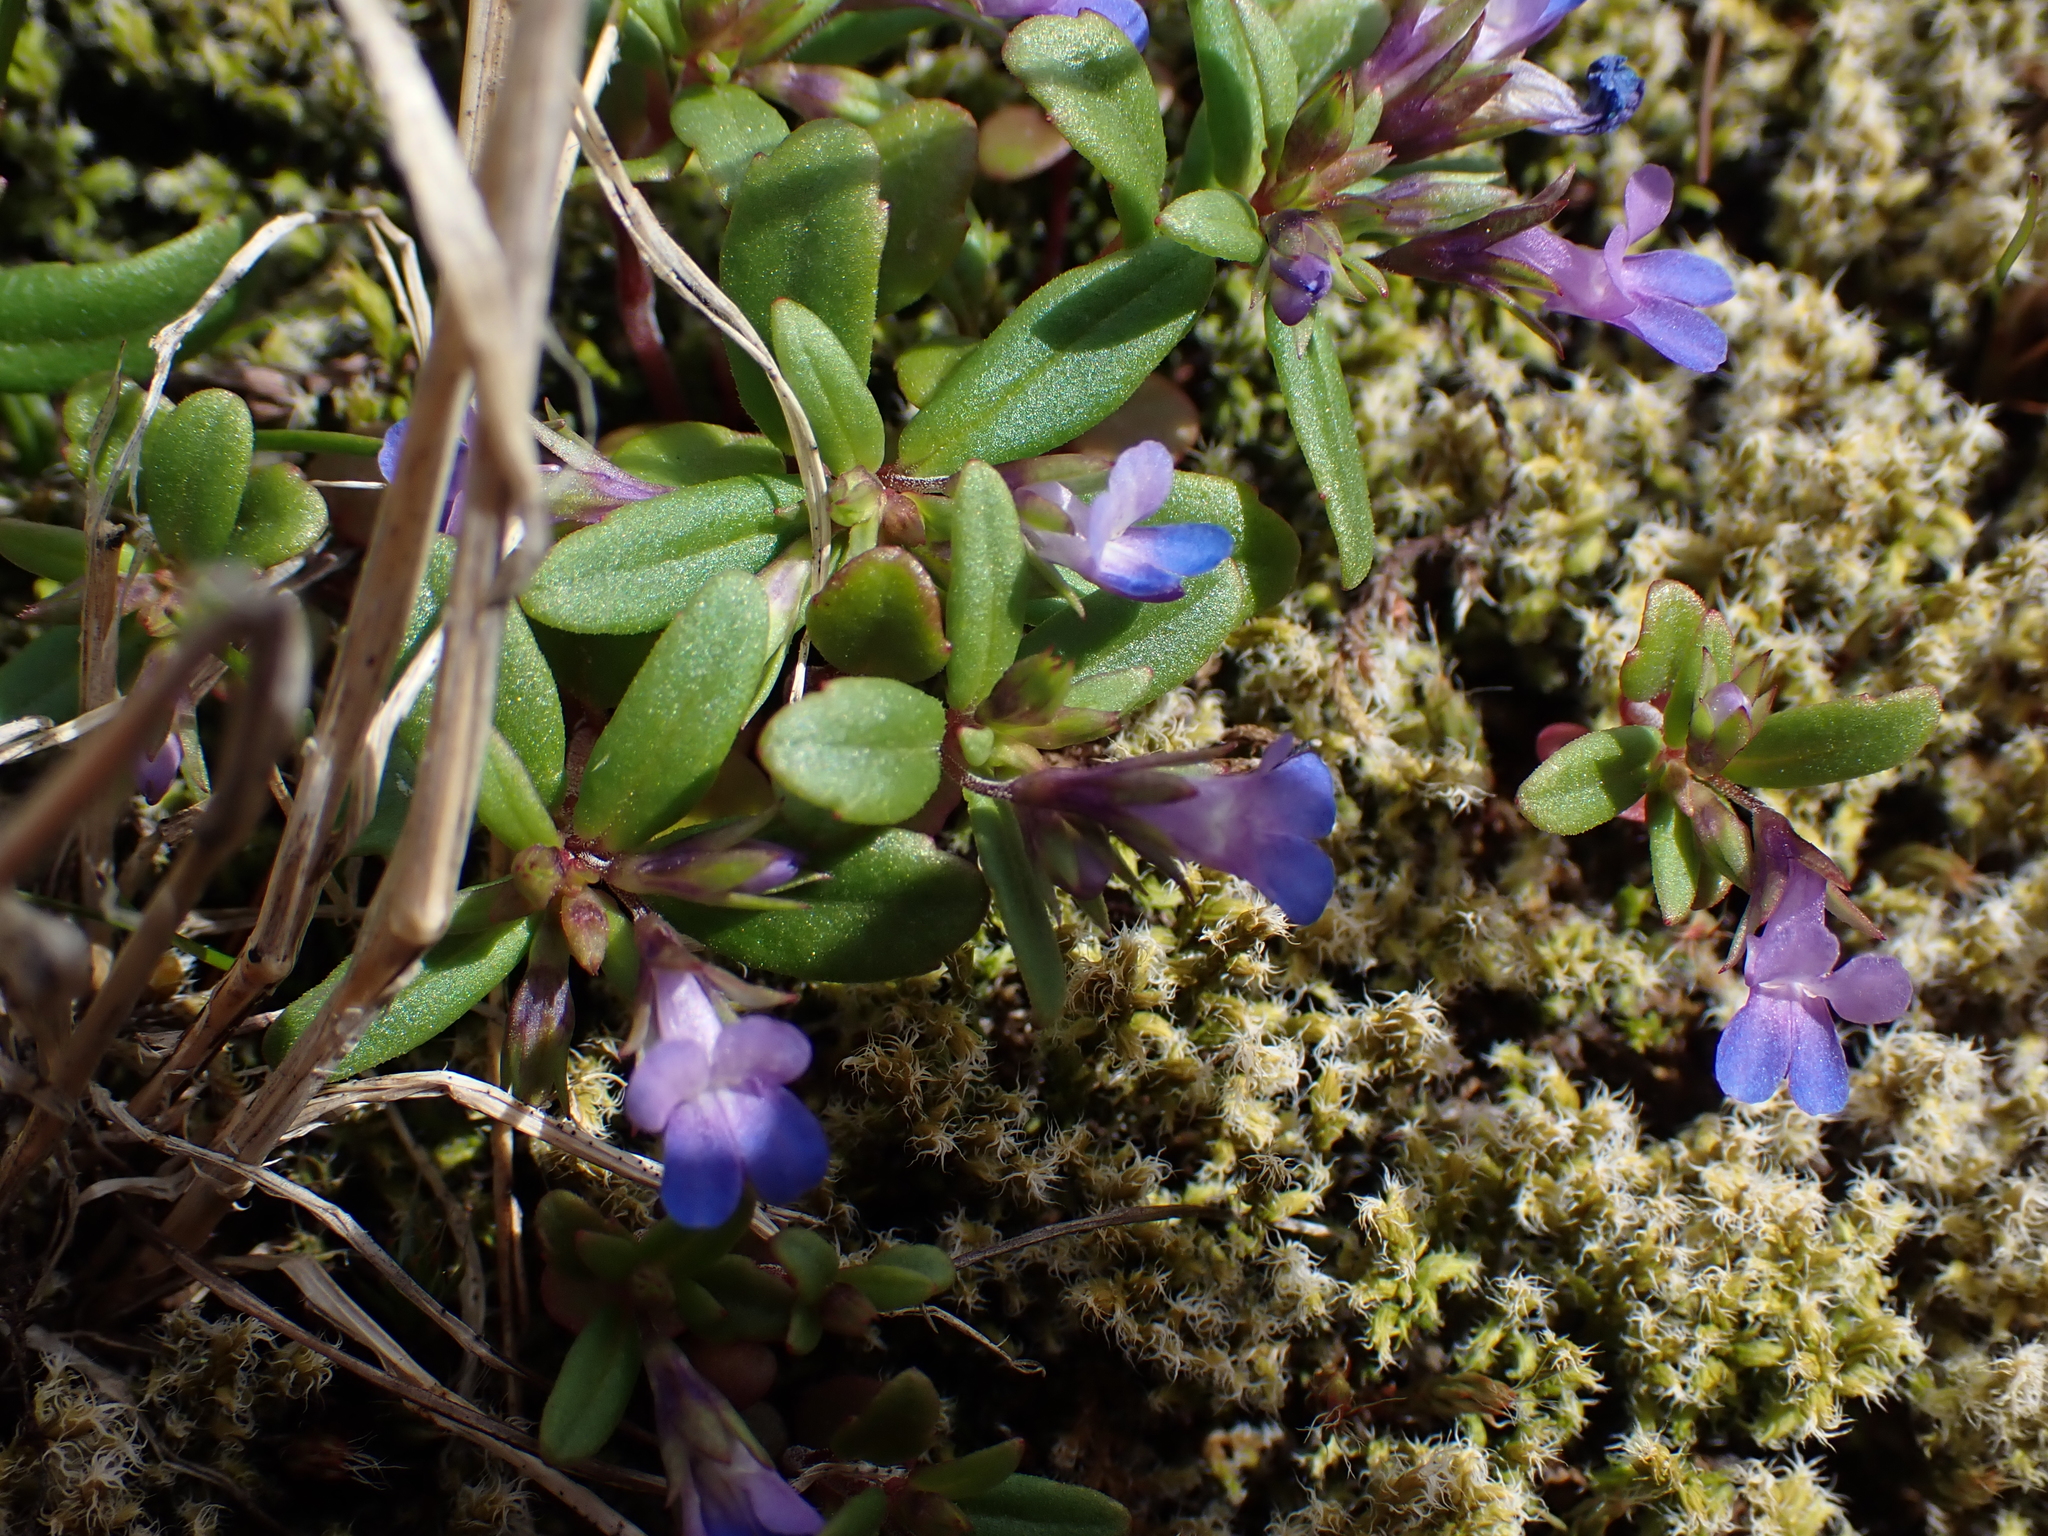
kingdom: Plantae
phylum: Tracheophyta
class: Magnoliopsida
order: Lamiales
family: Plantaginaceae
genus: Collinsia
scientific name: Collinsia parviflora
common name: Blue-lips
